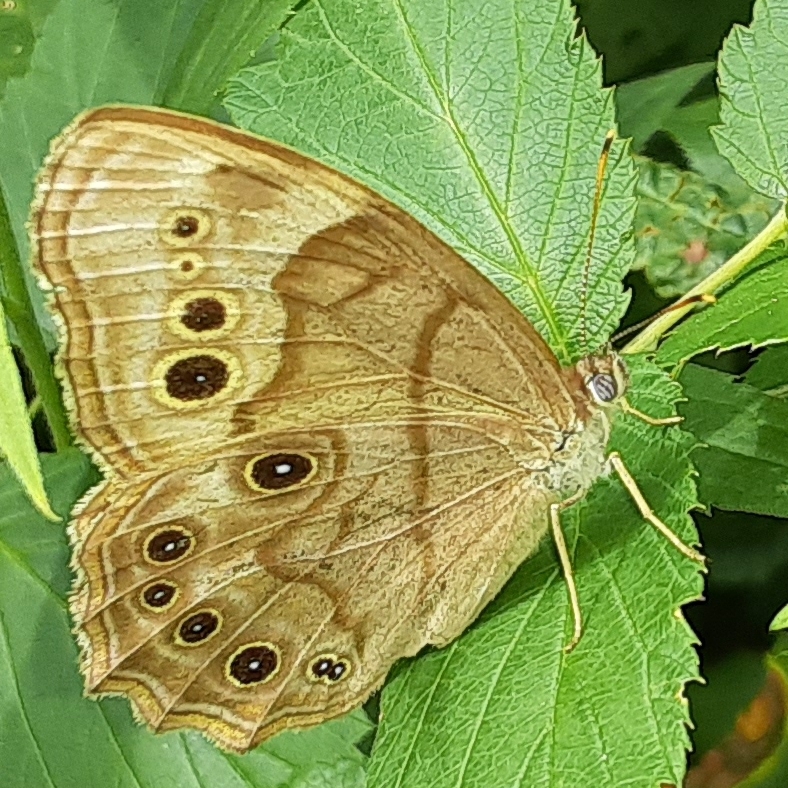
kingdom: Animalia
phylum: Arthropoda
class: Insecta
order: Lepidoptera
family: Nymphalidae
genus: Lethe
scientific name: Lethe anthedon
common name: Northern pearly-eye
